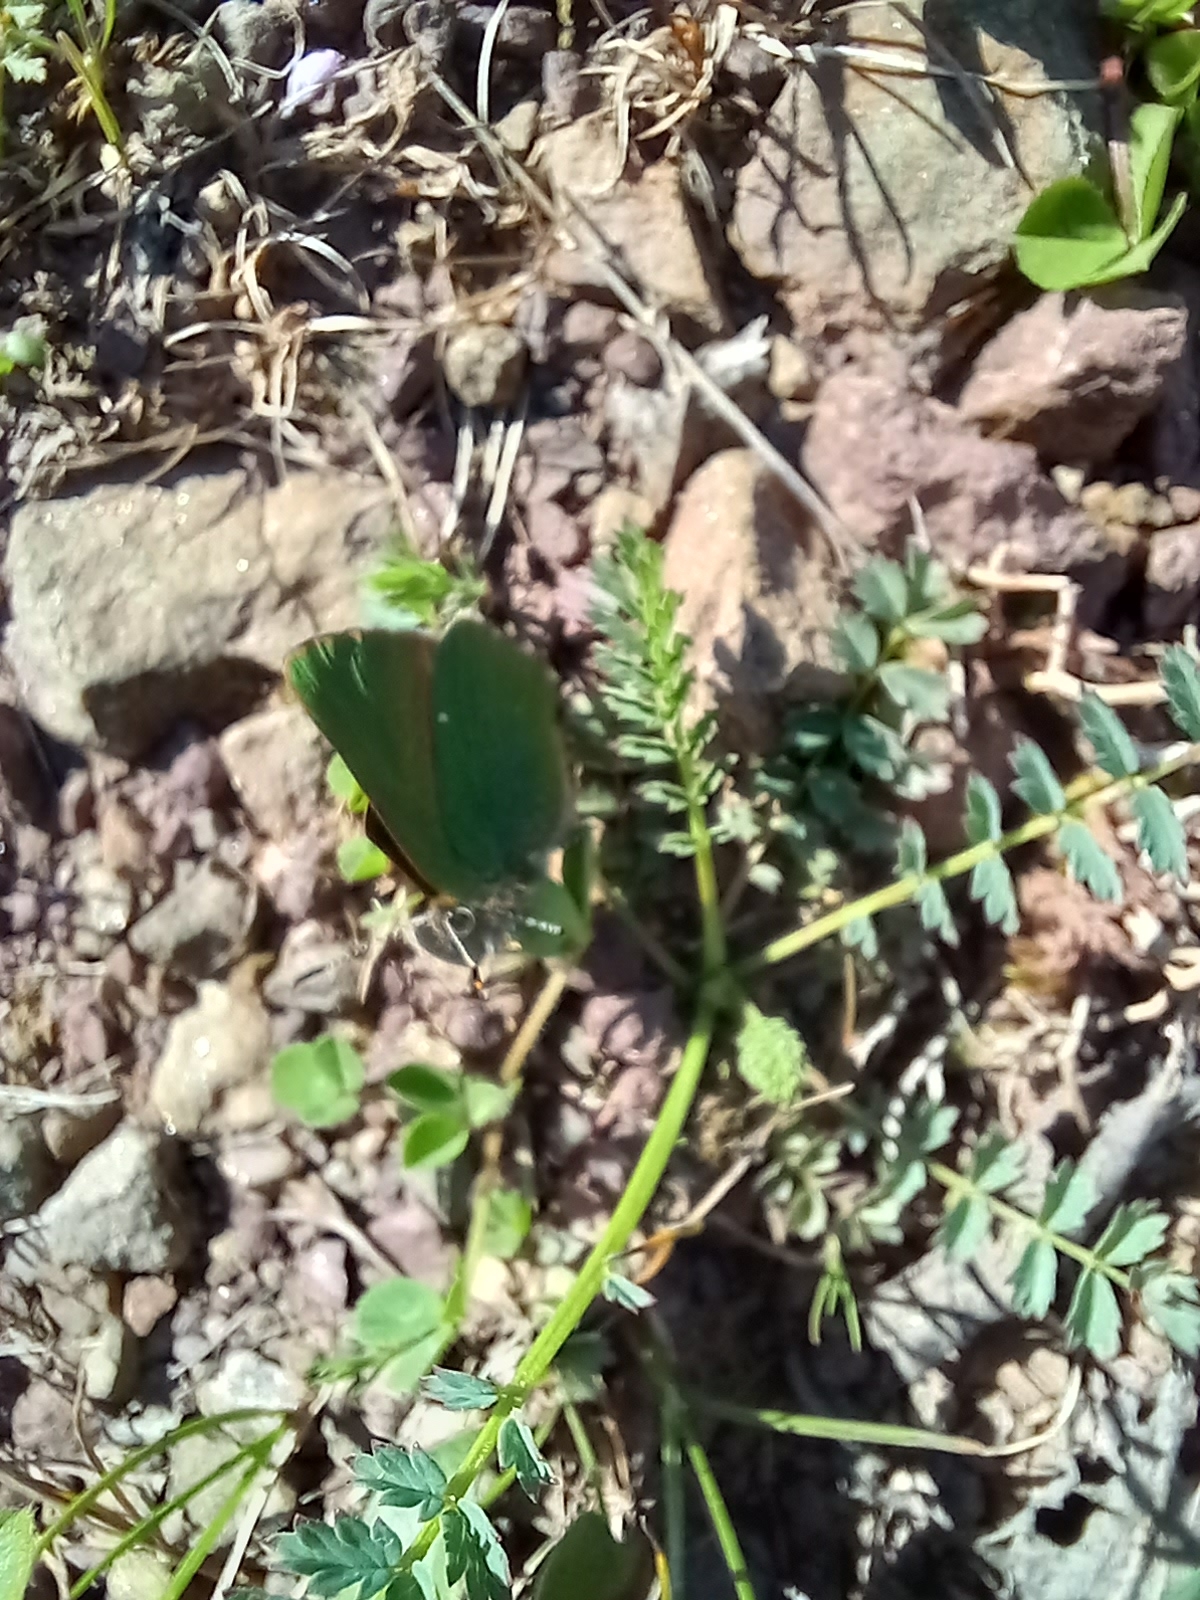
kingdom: Animalia
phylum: Arthropoda
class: Insecta
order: Lepidoptera
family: Lycaenidae
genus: Callophrys
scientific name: Callophrys rubi
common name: Green hairstreak
